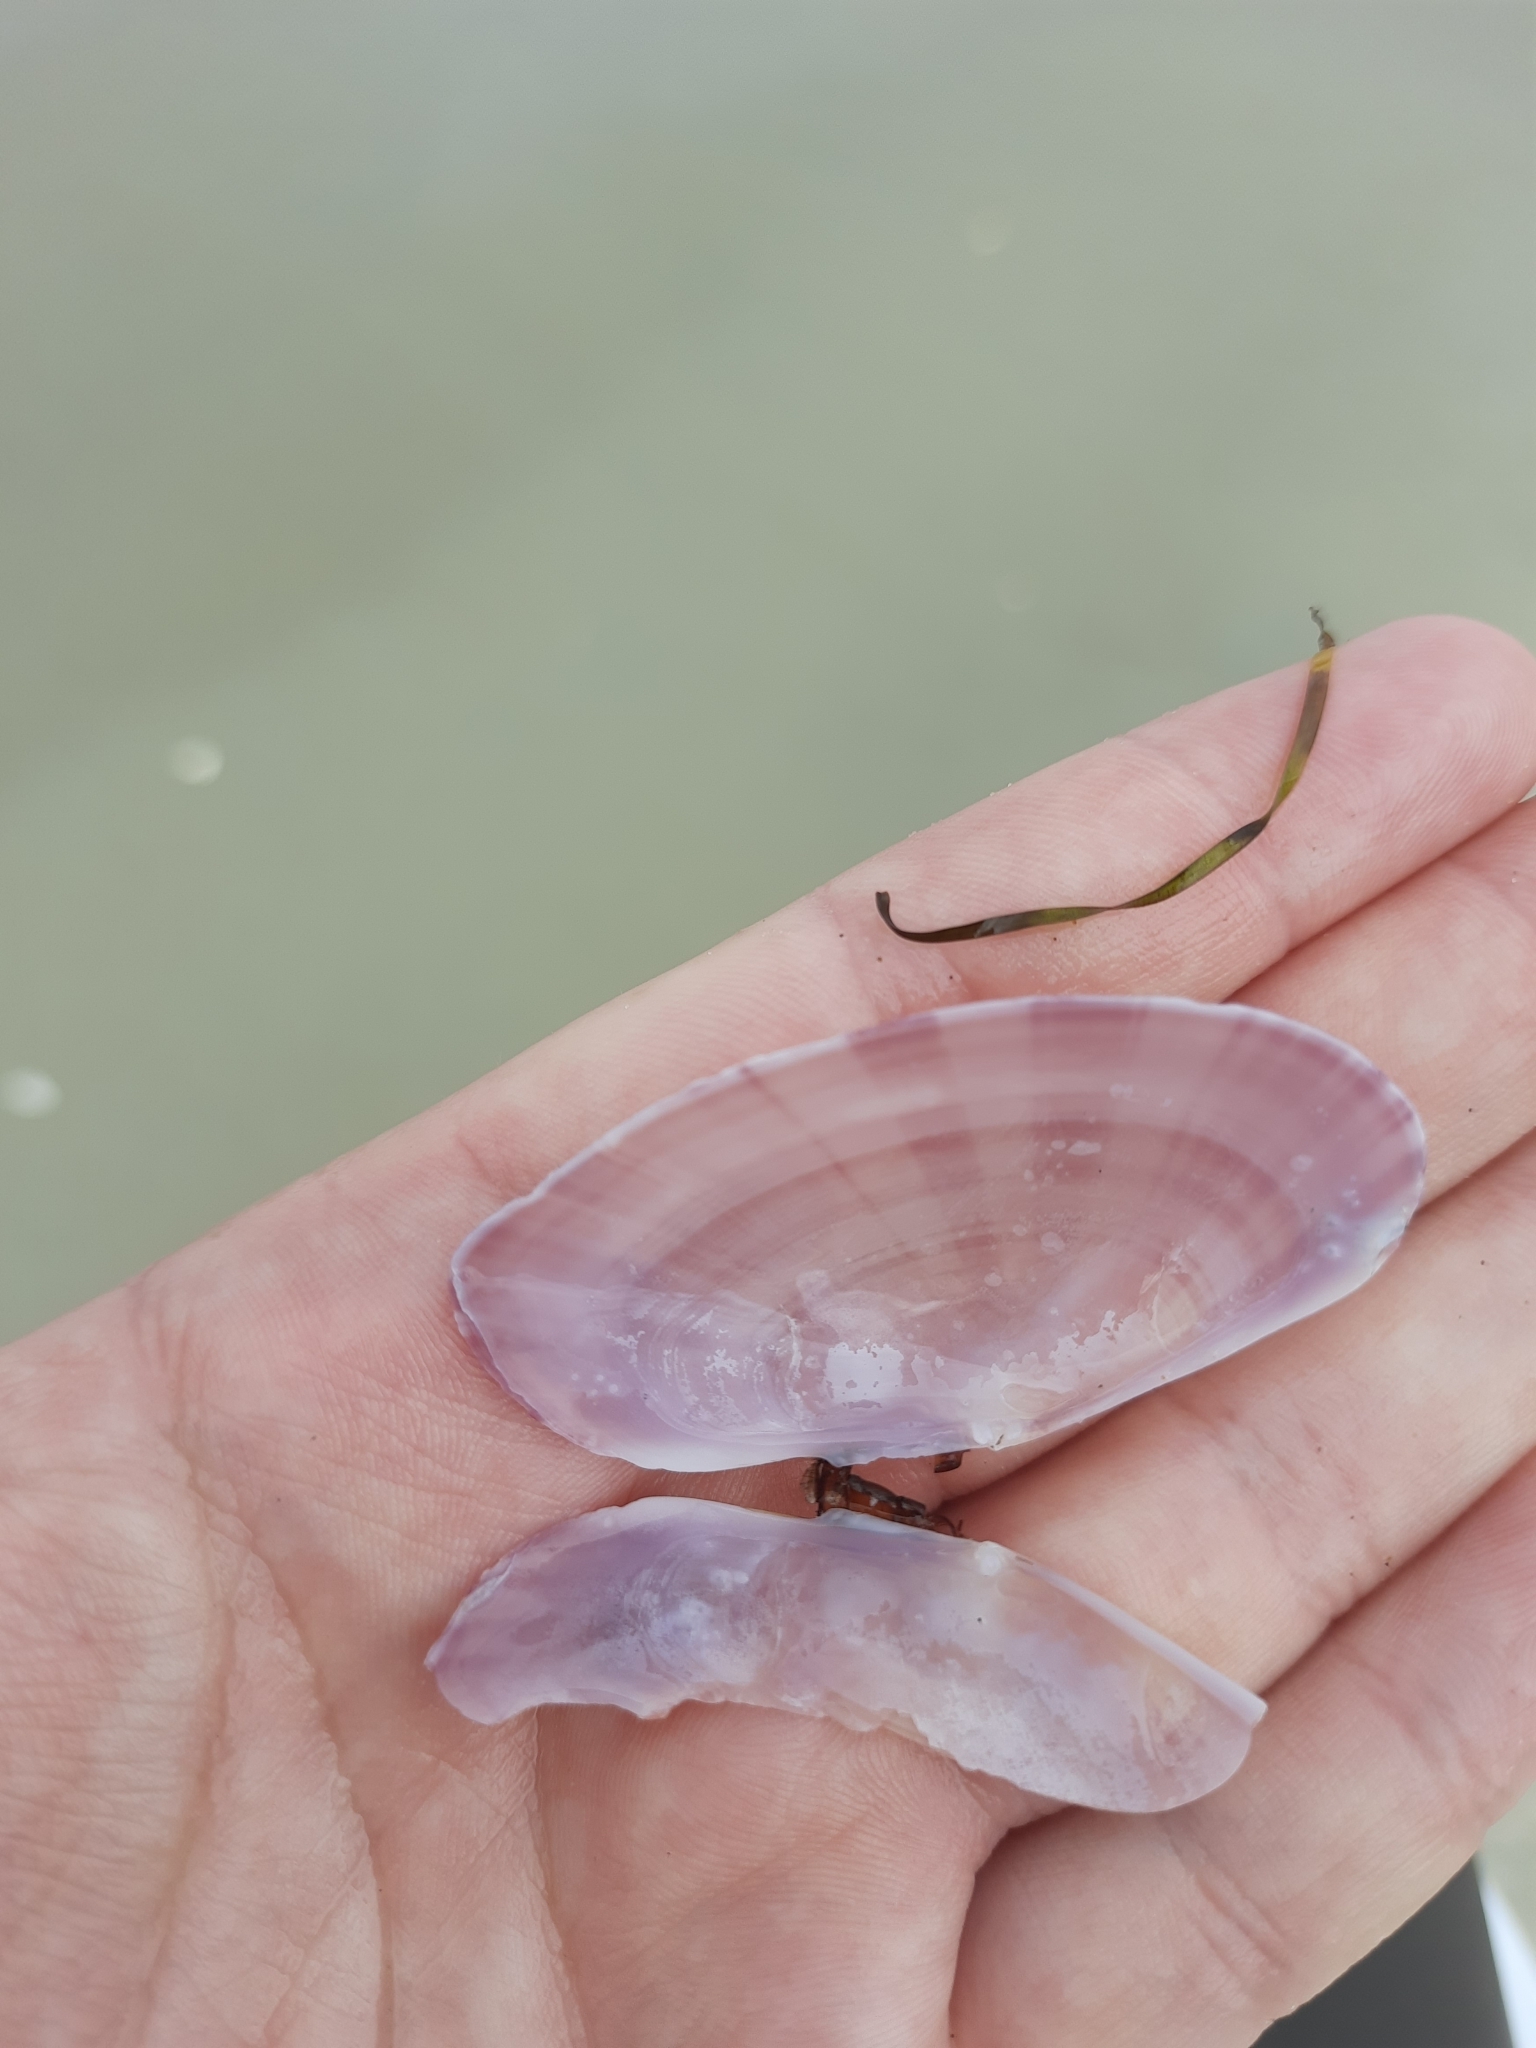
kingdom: Animalia
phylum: Mollusca
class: Bivalvia
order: Cardiida
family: Psammobiidae
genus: Gari
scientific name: Gari convexa
